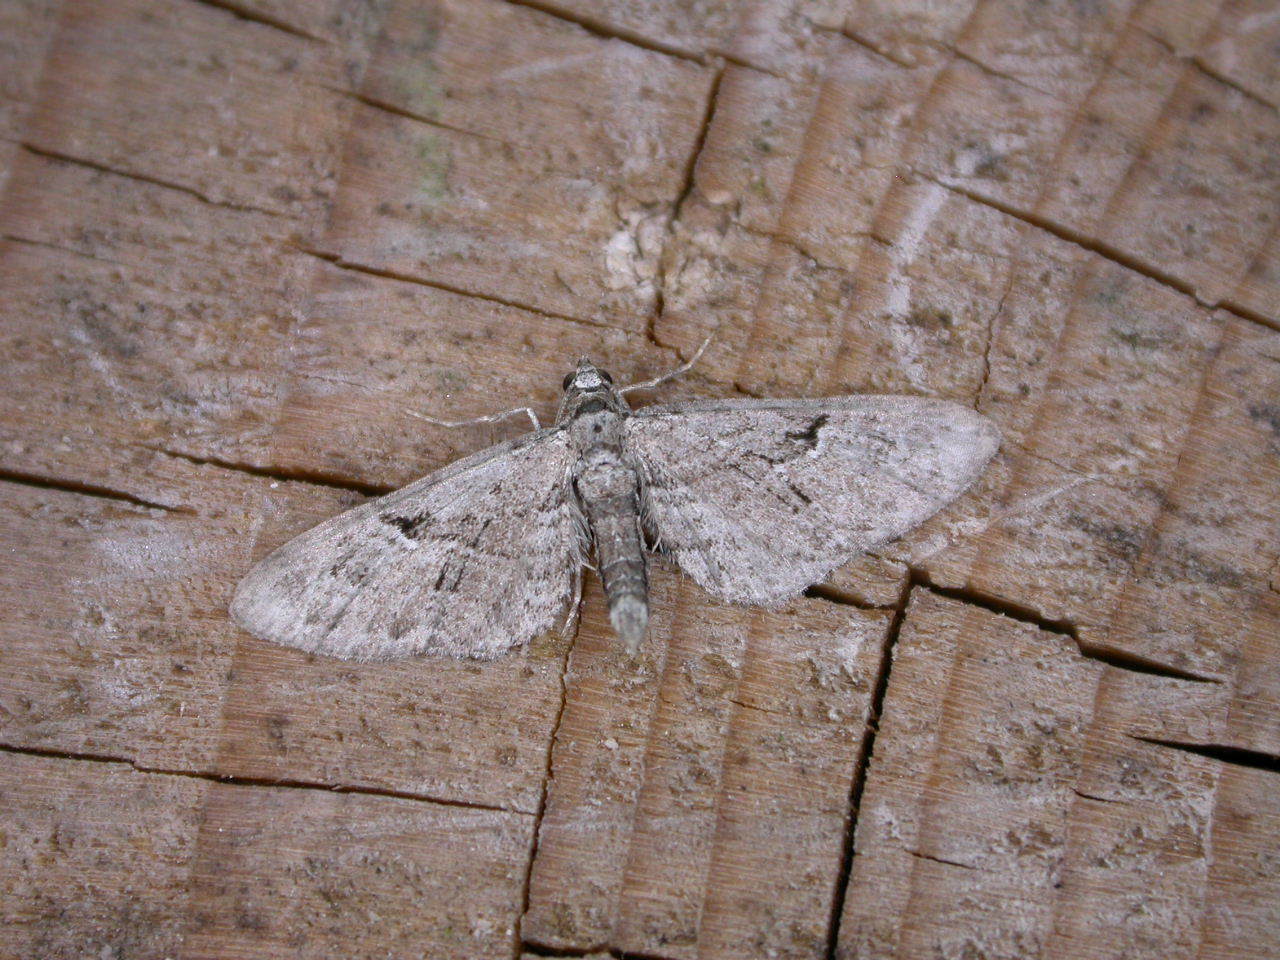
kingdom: Animalia
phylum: Arthropoda
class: Insecta
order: Lepidoptera
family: Geometridae
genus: Eupithecia
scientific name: Eupithecia pusillata
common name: Juniper pug
